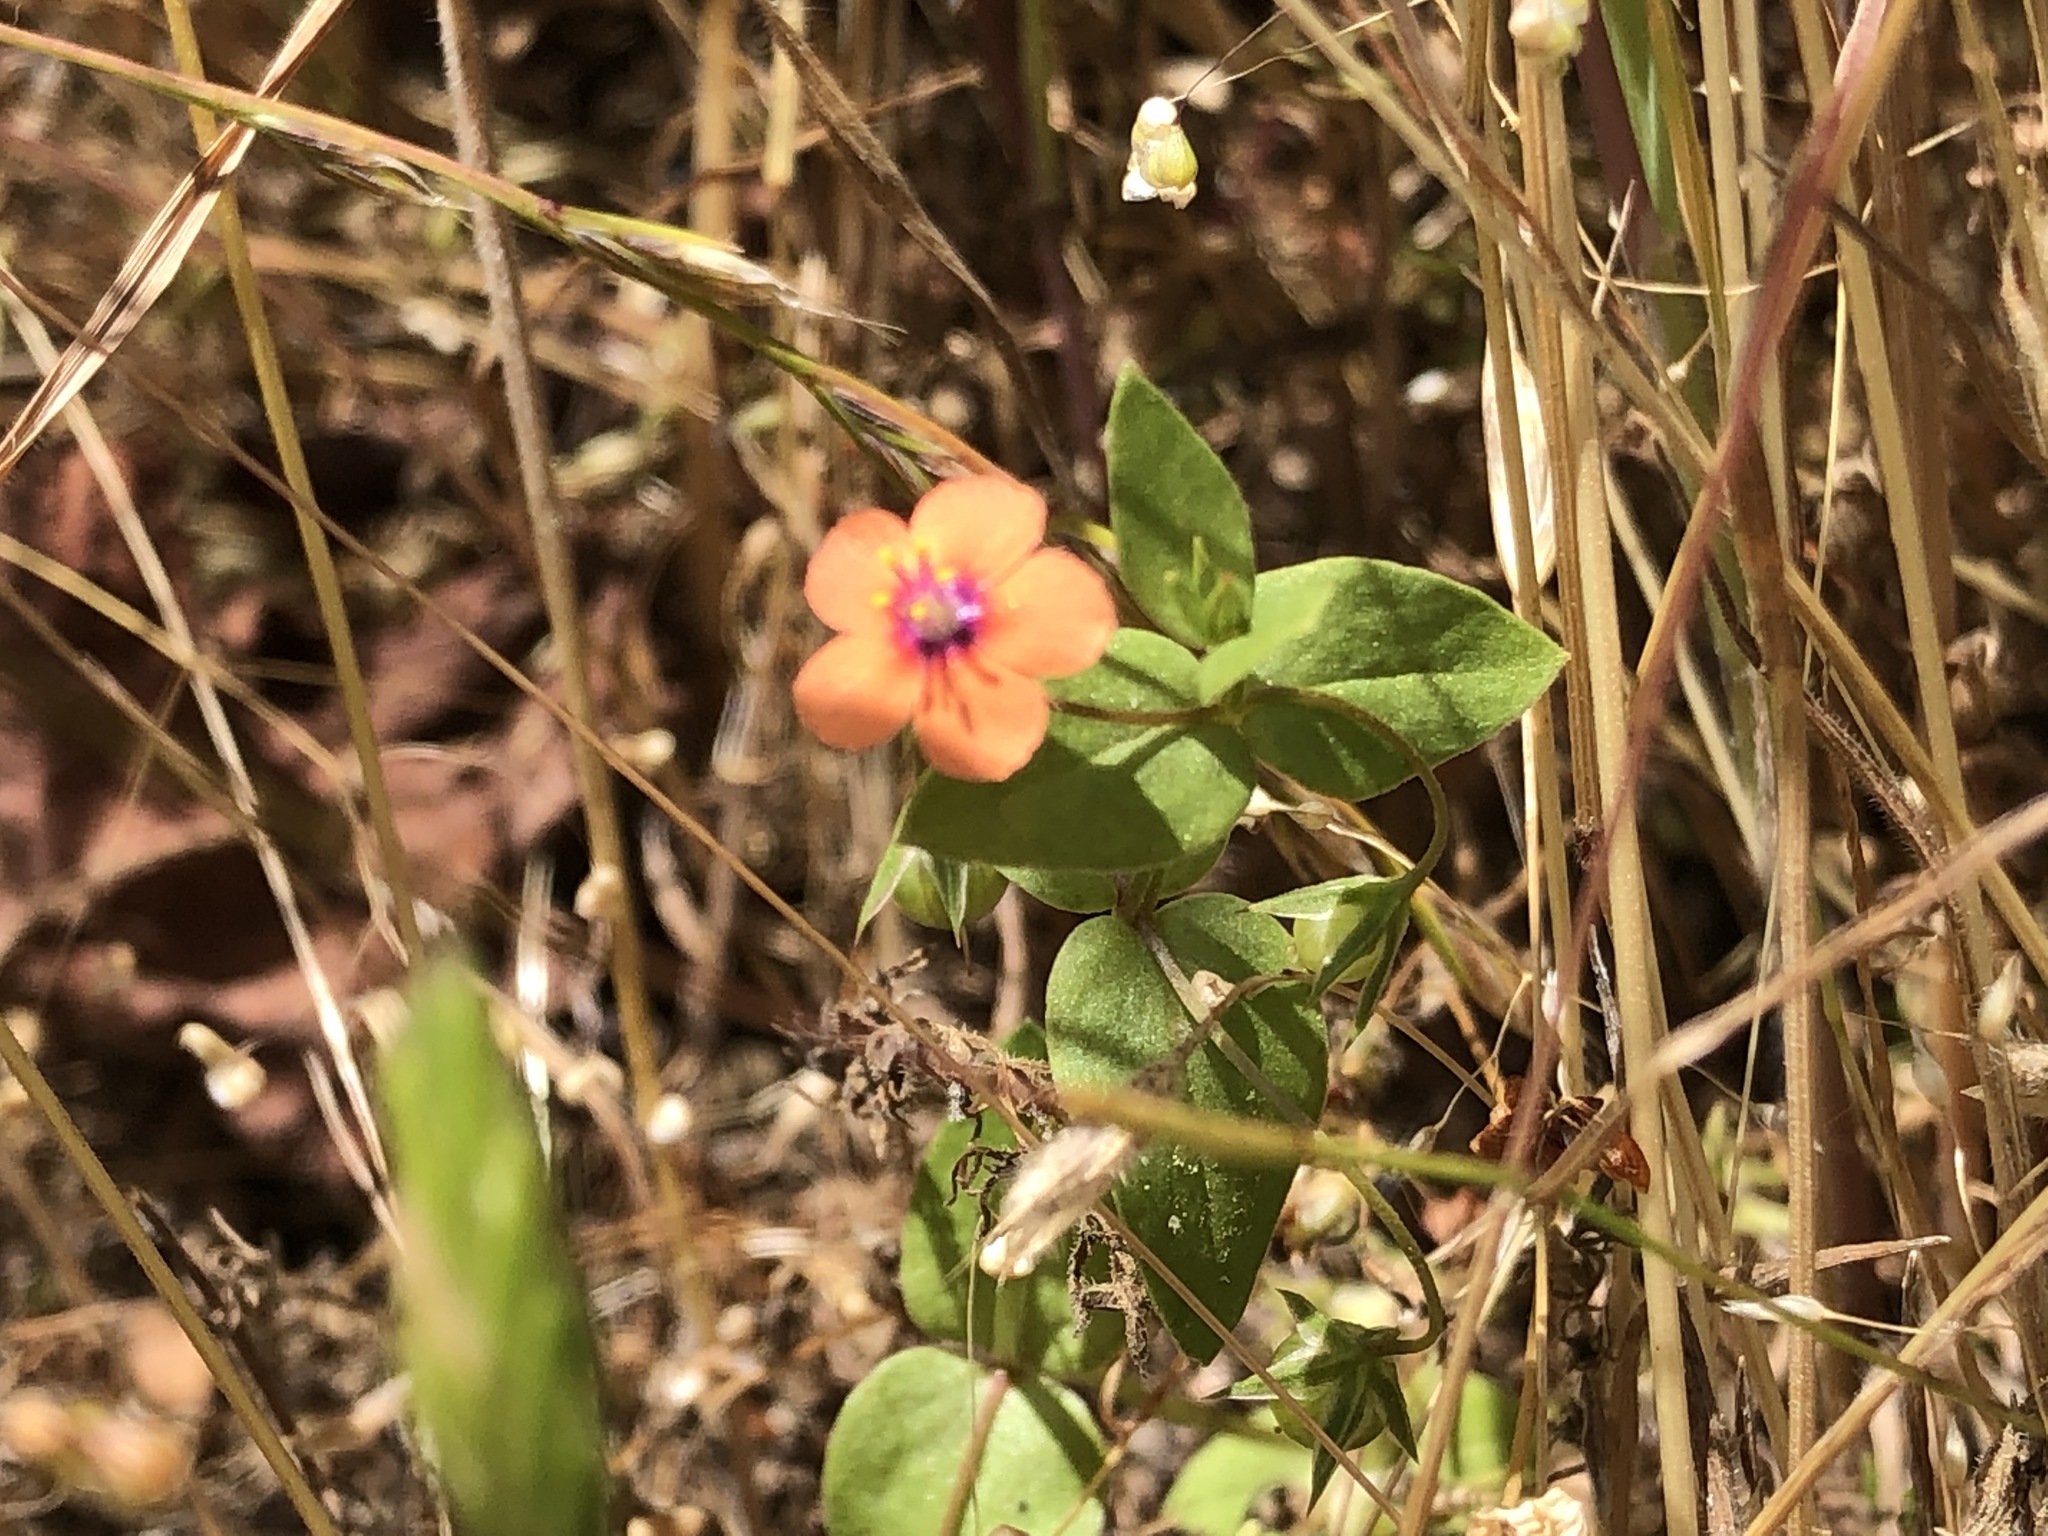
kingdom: Plantae
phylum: Tracheophyta
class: Magnoliopsida
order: Ericales
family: Primulaceae
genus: Lysimachia
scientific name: Lysimachia arvensis
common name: Scarlet pimpernel
